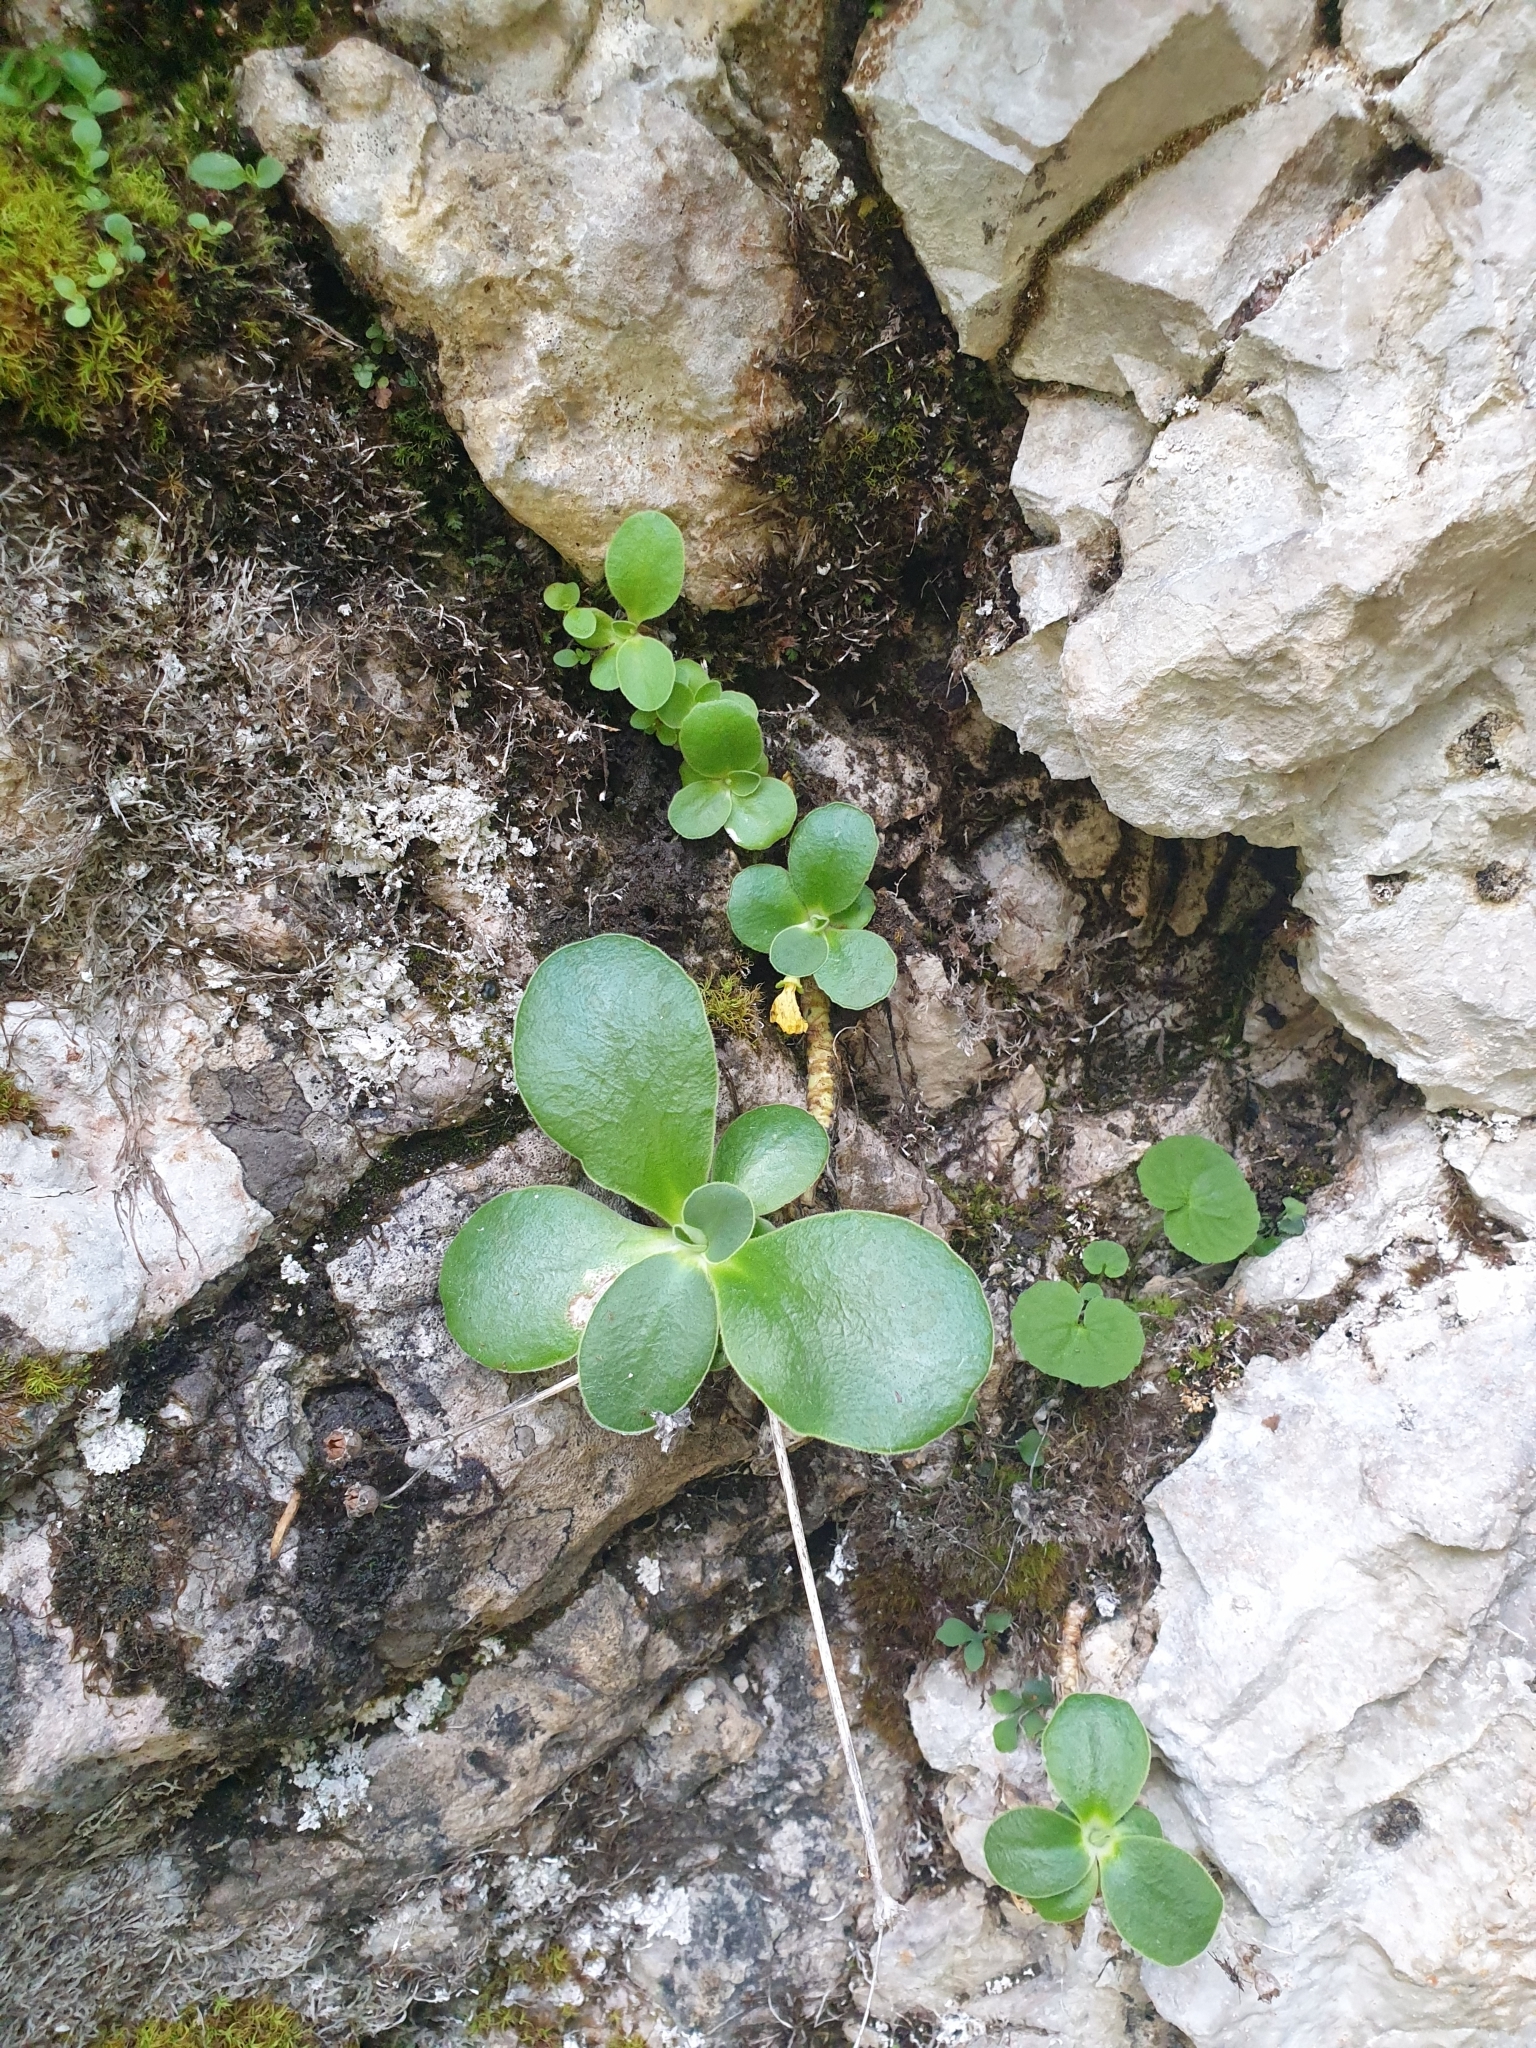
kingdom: Plantae
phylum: Tracheophyta
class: Magnoliopsida
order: Ericales
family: Primulaceae
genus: Primula
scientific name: Primula auricula
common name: Auricula
